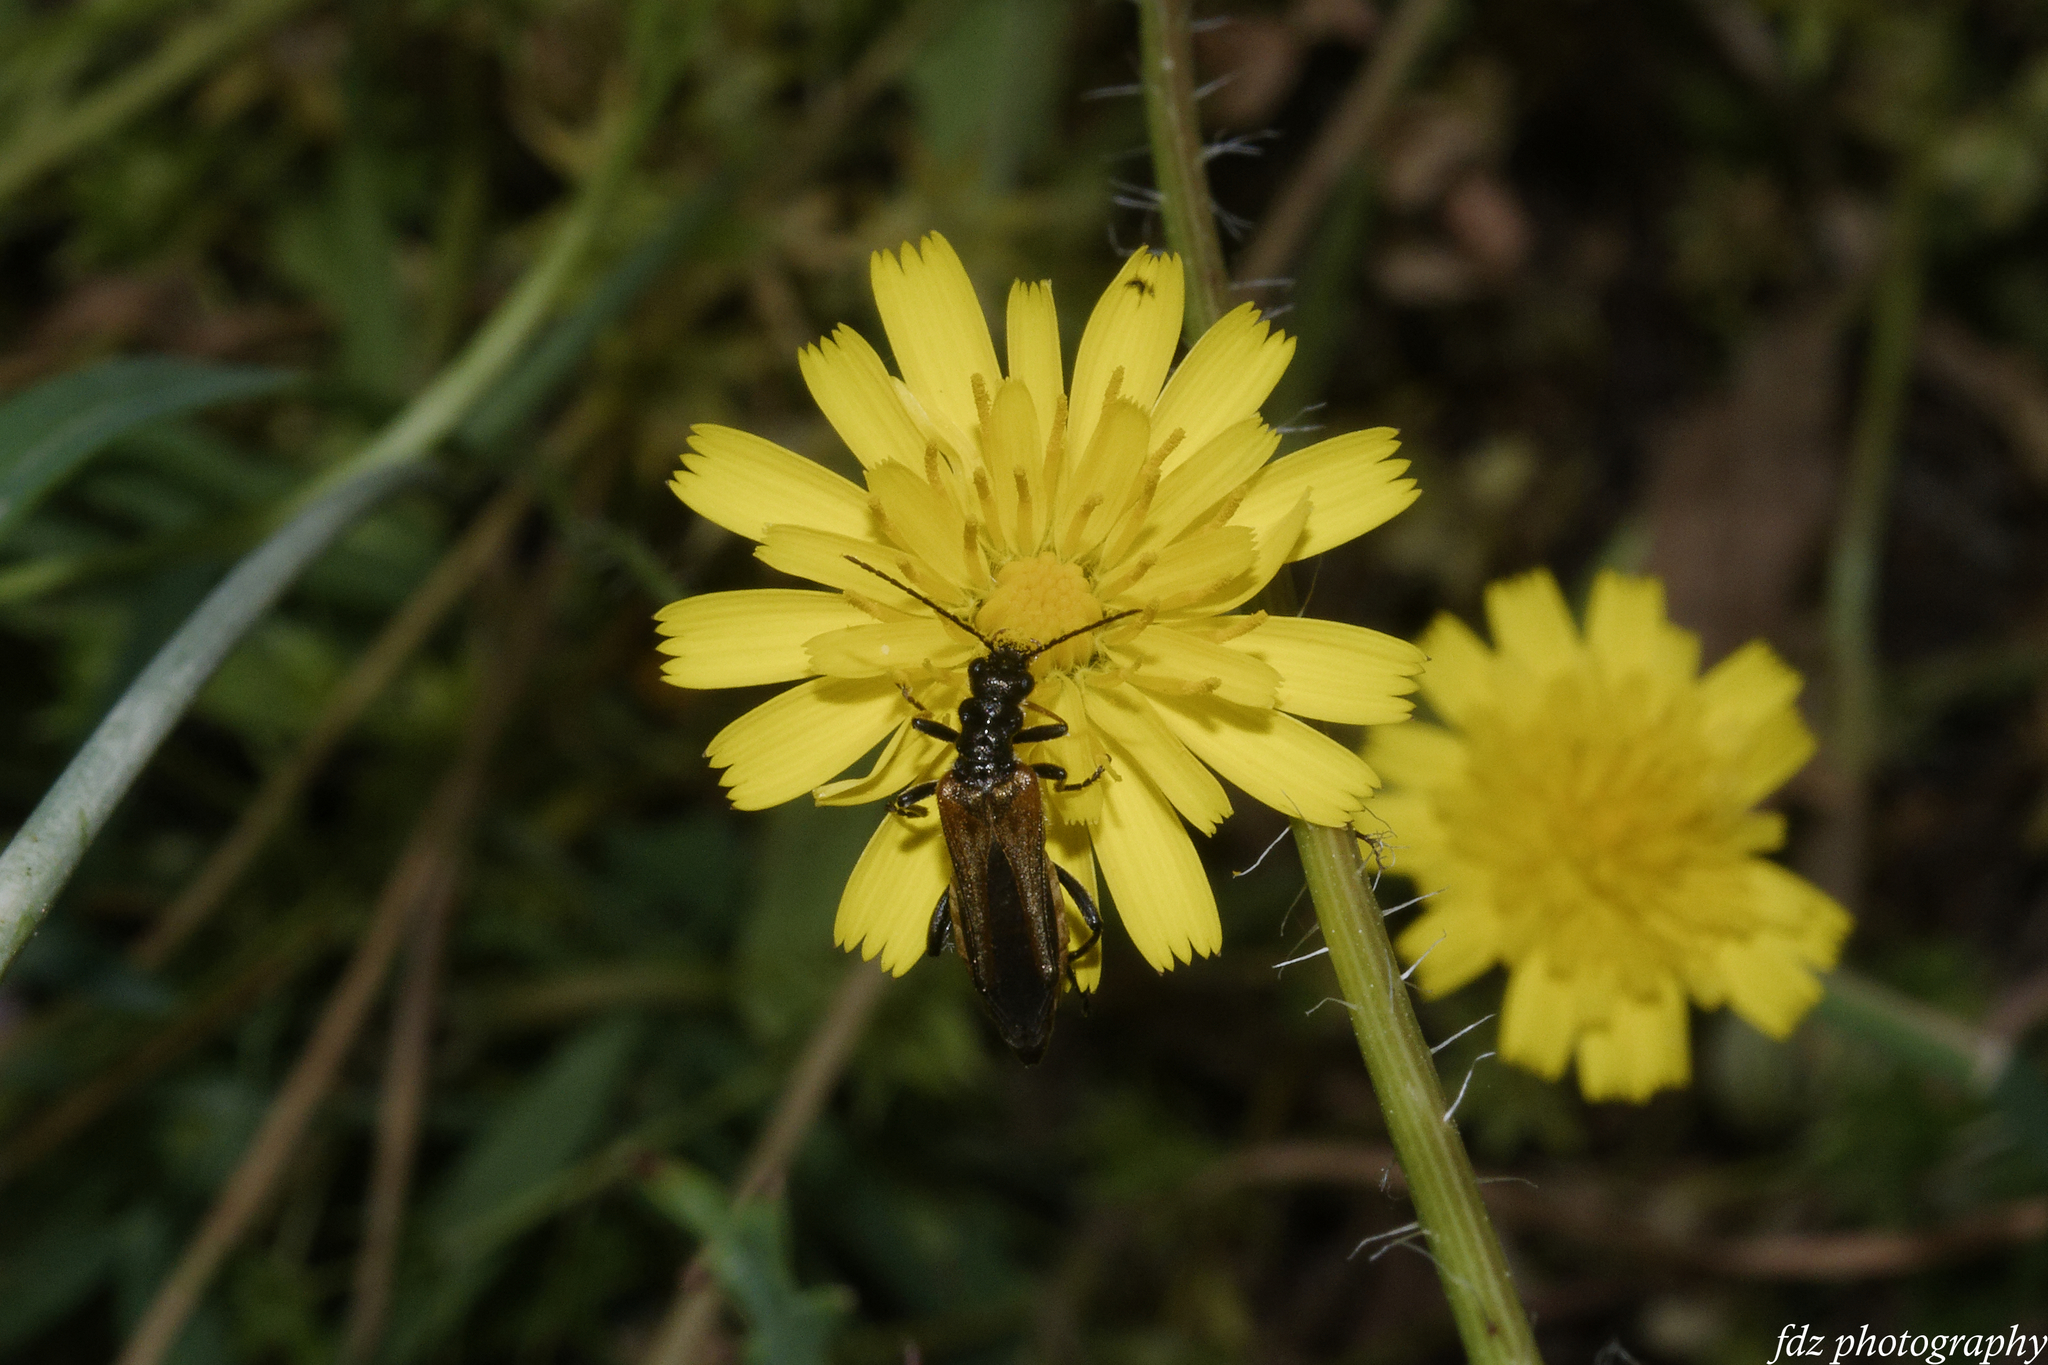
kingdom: Animalia
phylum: Arthropoda
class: Insecta
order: Coleoptera
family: Oedemeridae
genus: Oedemera
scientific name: Oedemera simplex
